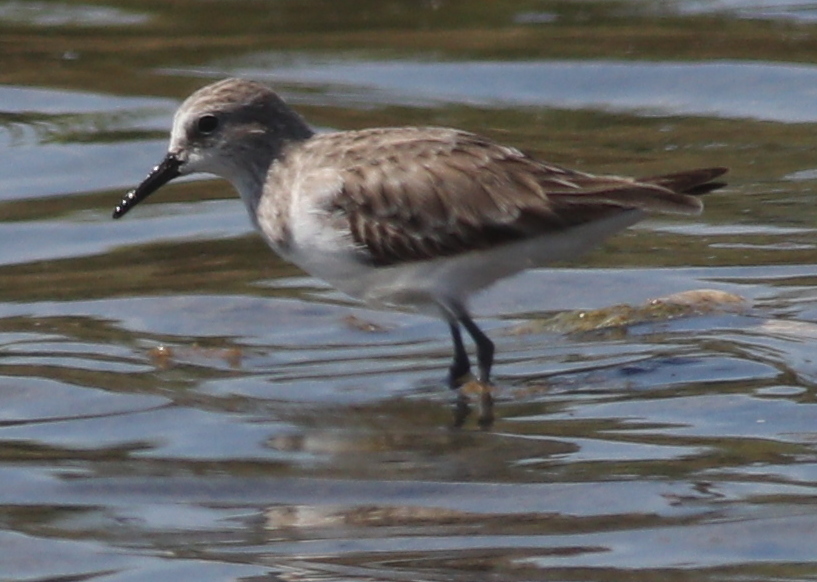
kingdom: Animalia
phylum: Chordata
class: Aves
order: Charadriiformes
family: Scolopacidae
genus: Calidris
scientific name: Calidris minuta
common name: Little stint
